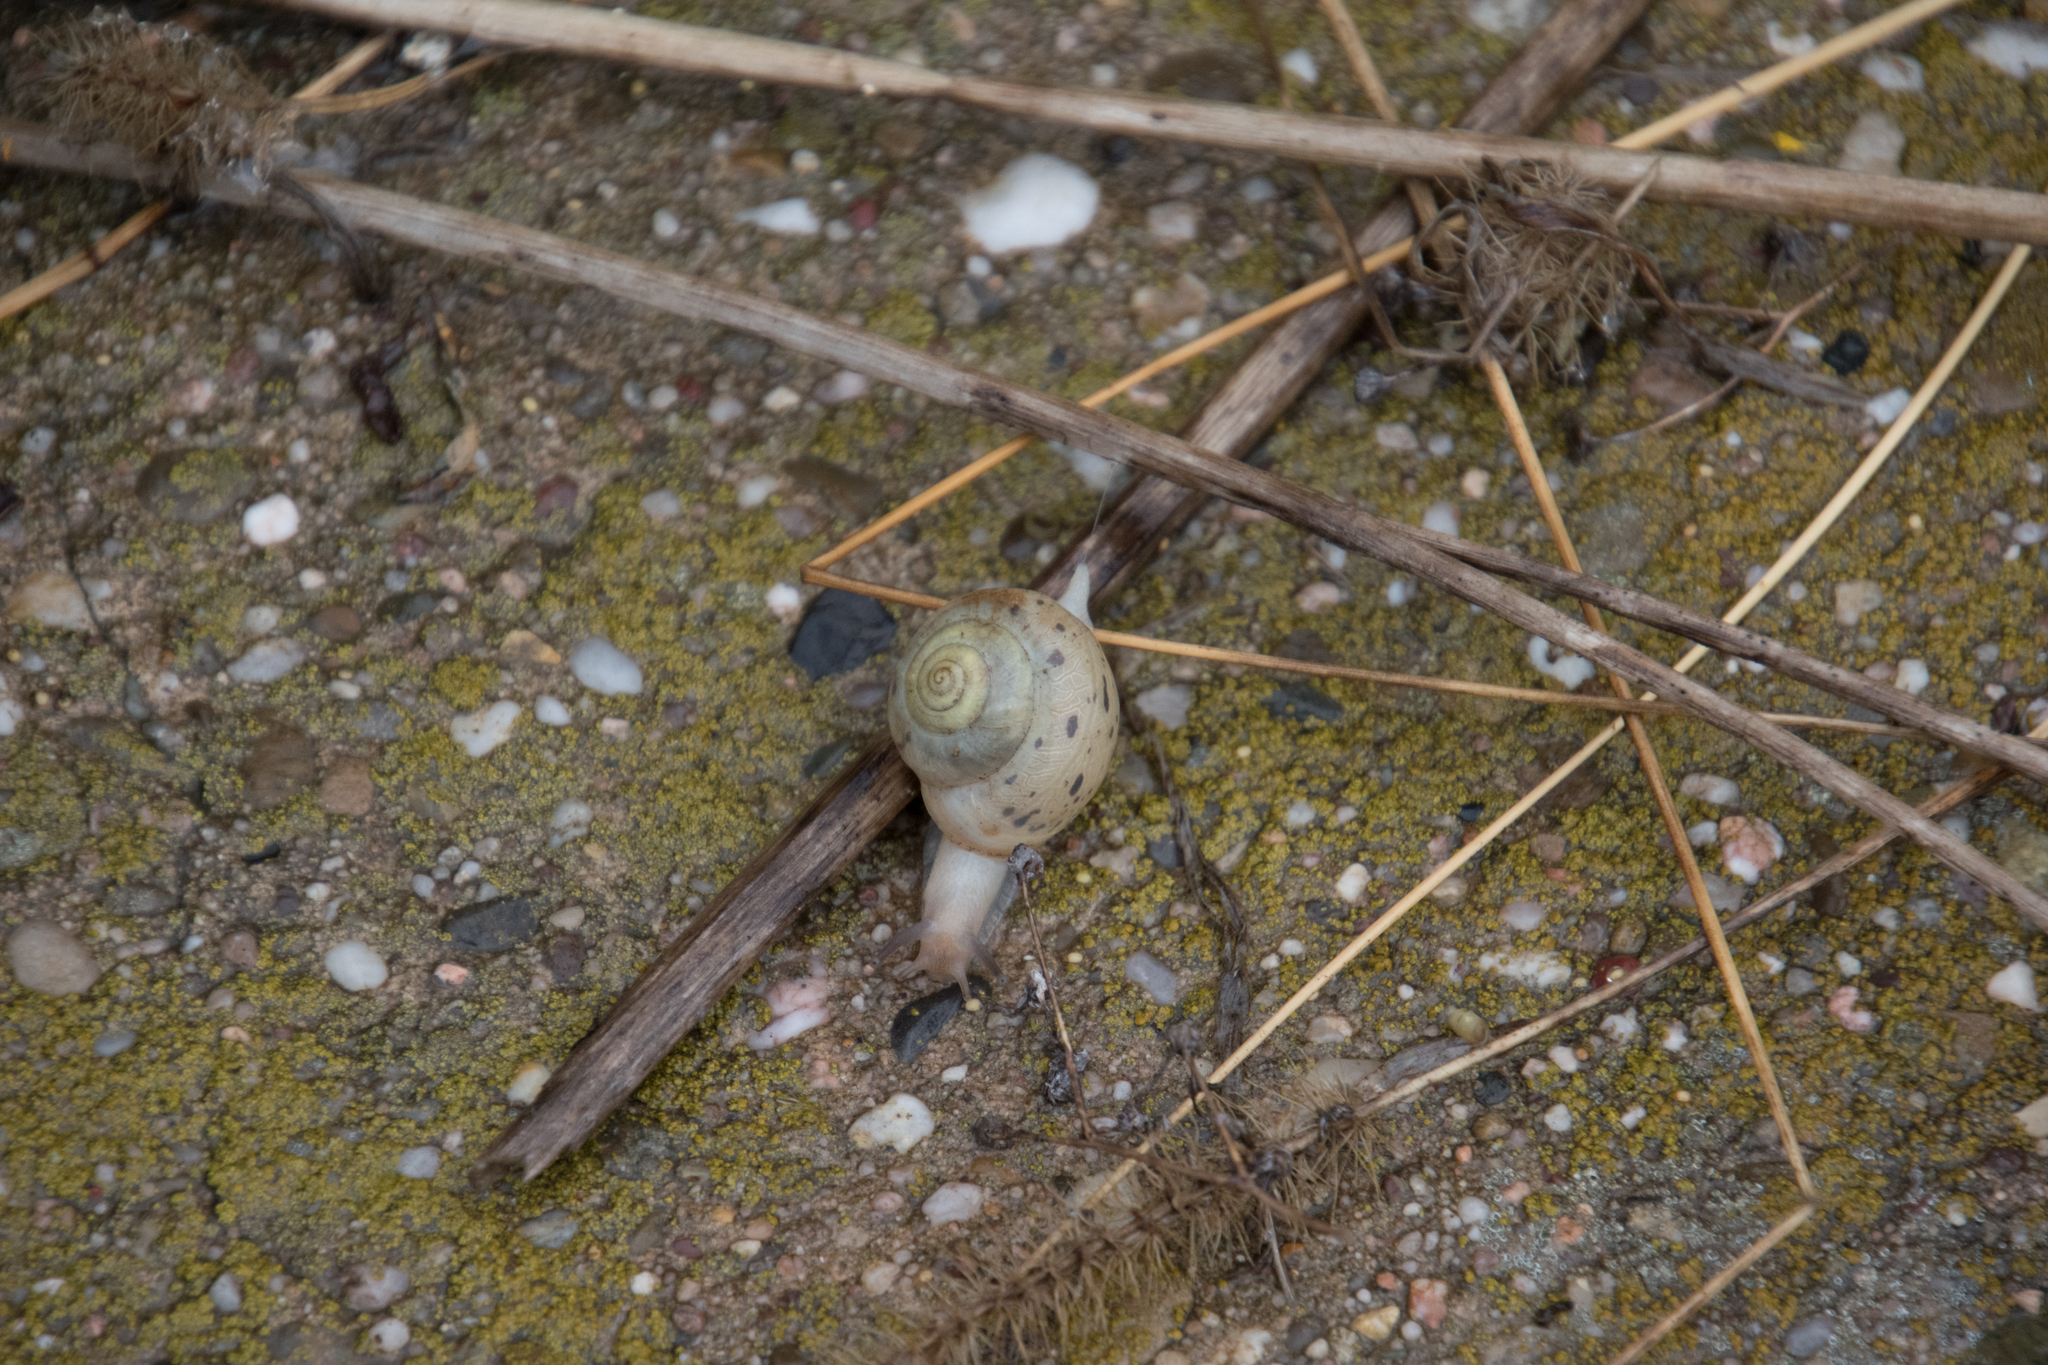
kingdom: Animalia
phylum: Mollusca
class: Gastropoda
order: Stylommatophora
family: Camaenidae
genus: Fruticicola
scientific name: Fruticicola fruticum
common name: Bush snail
